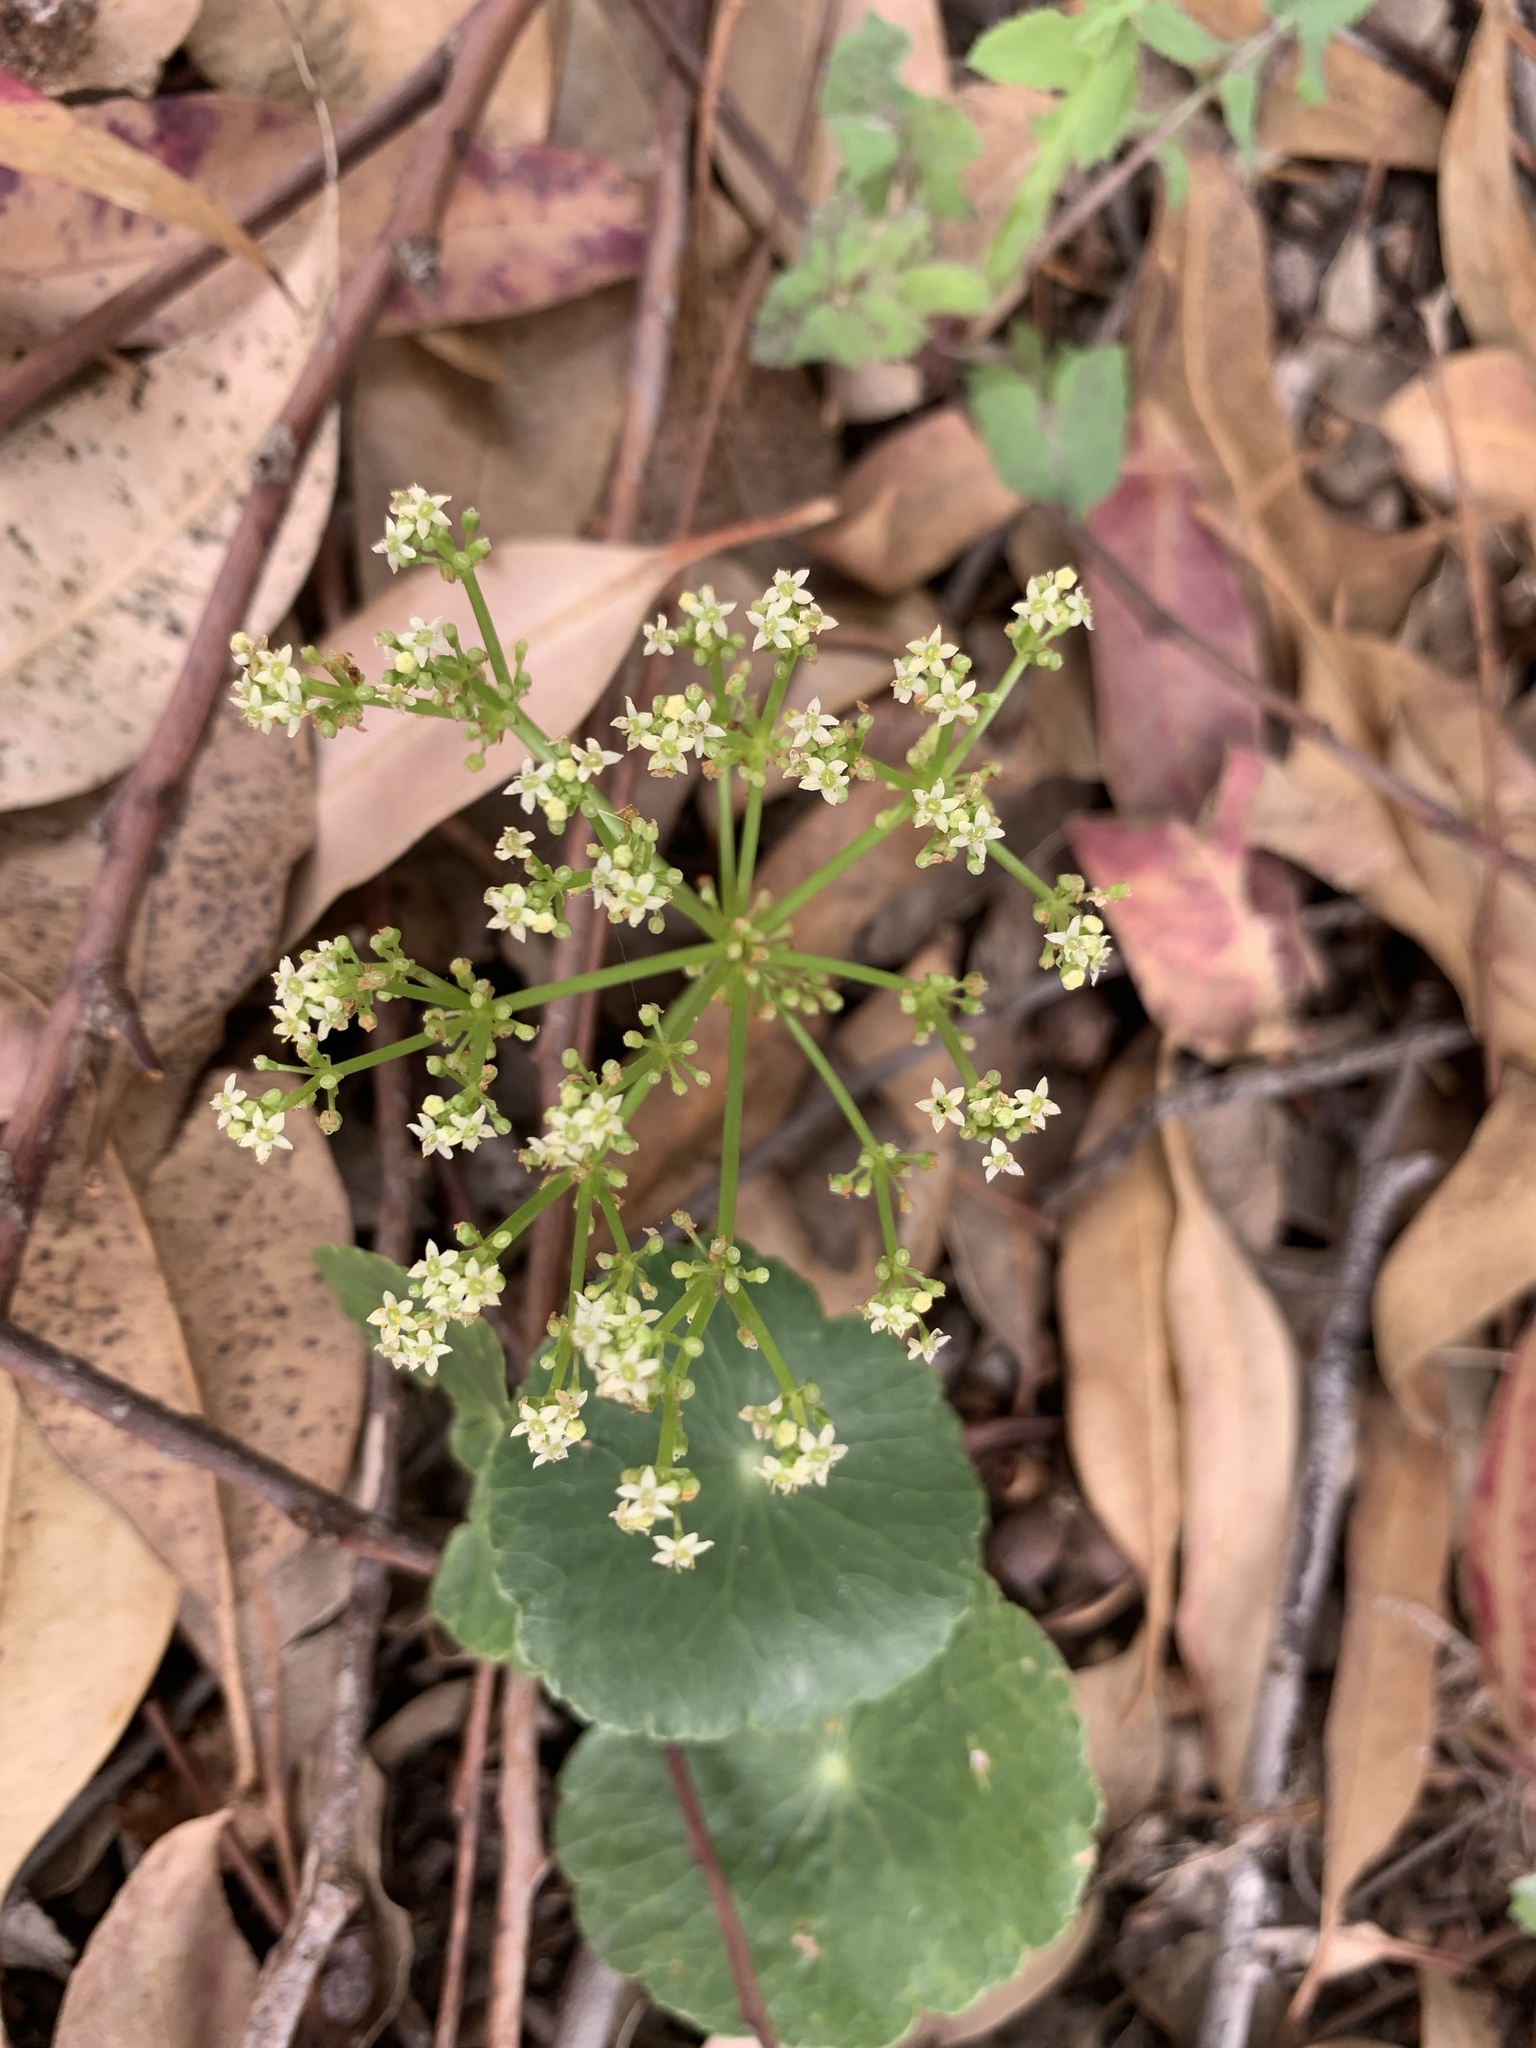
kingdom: Plantae
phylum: Tracheophyta
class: Magnoliopsida
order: Apiales
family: Araliaceae
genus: Hydrocotyle
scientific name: Hydrocotyle bonariensis
